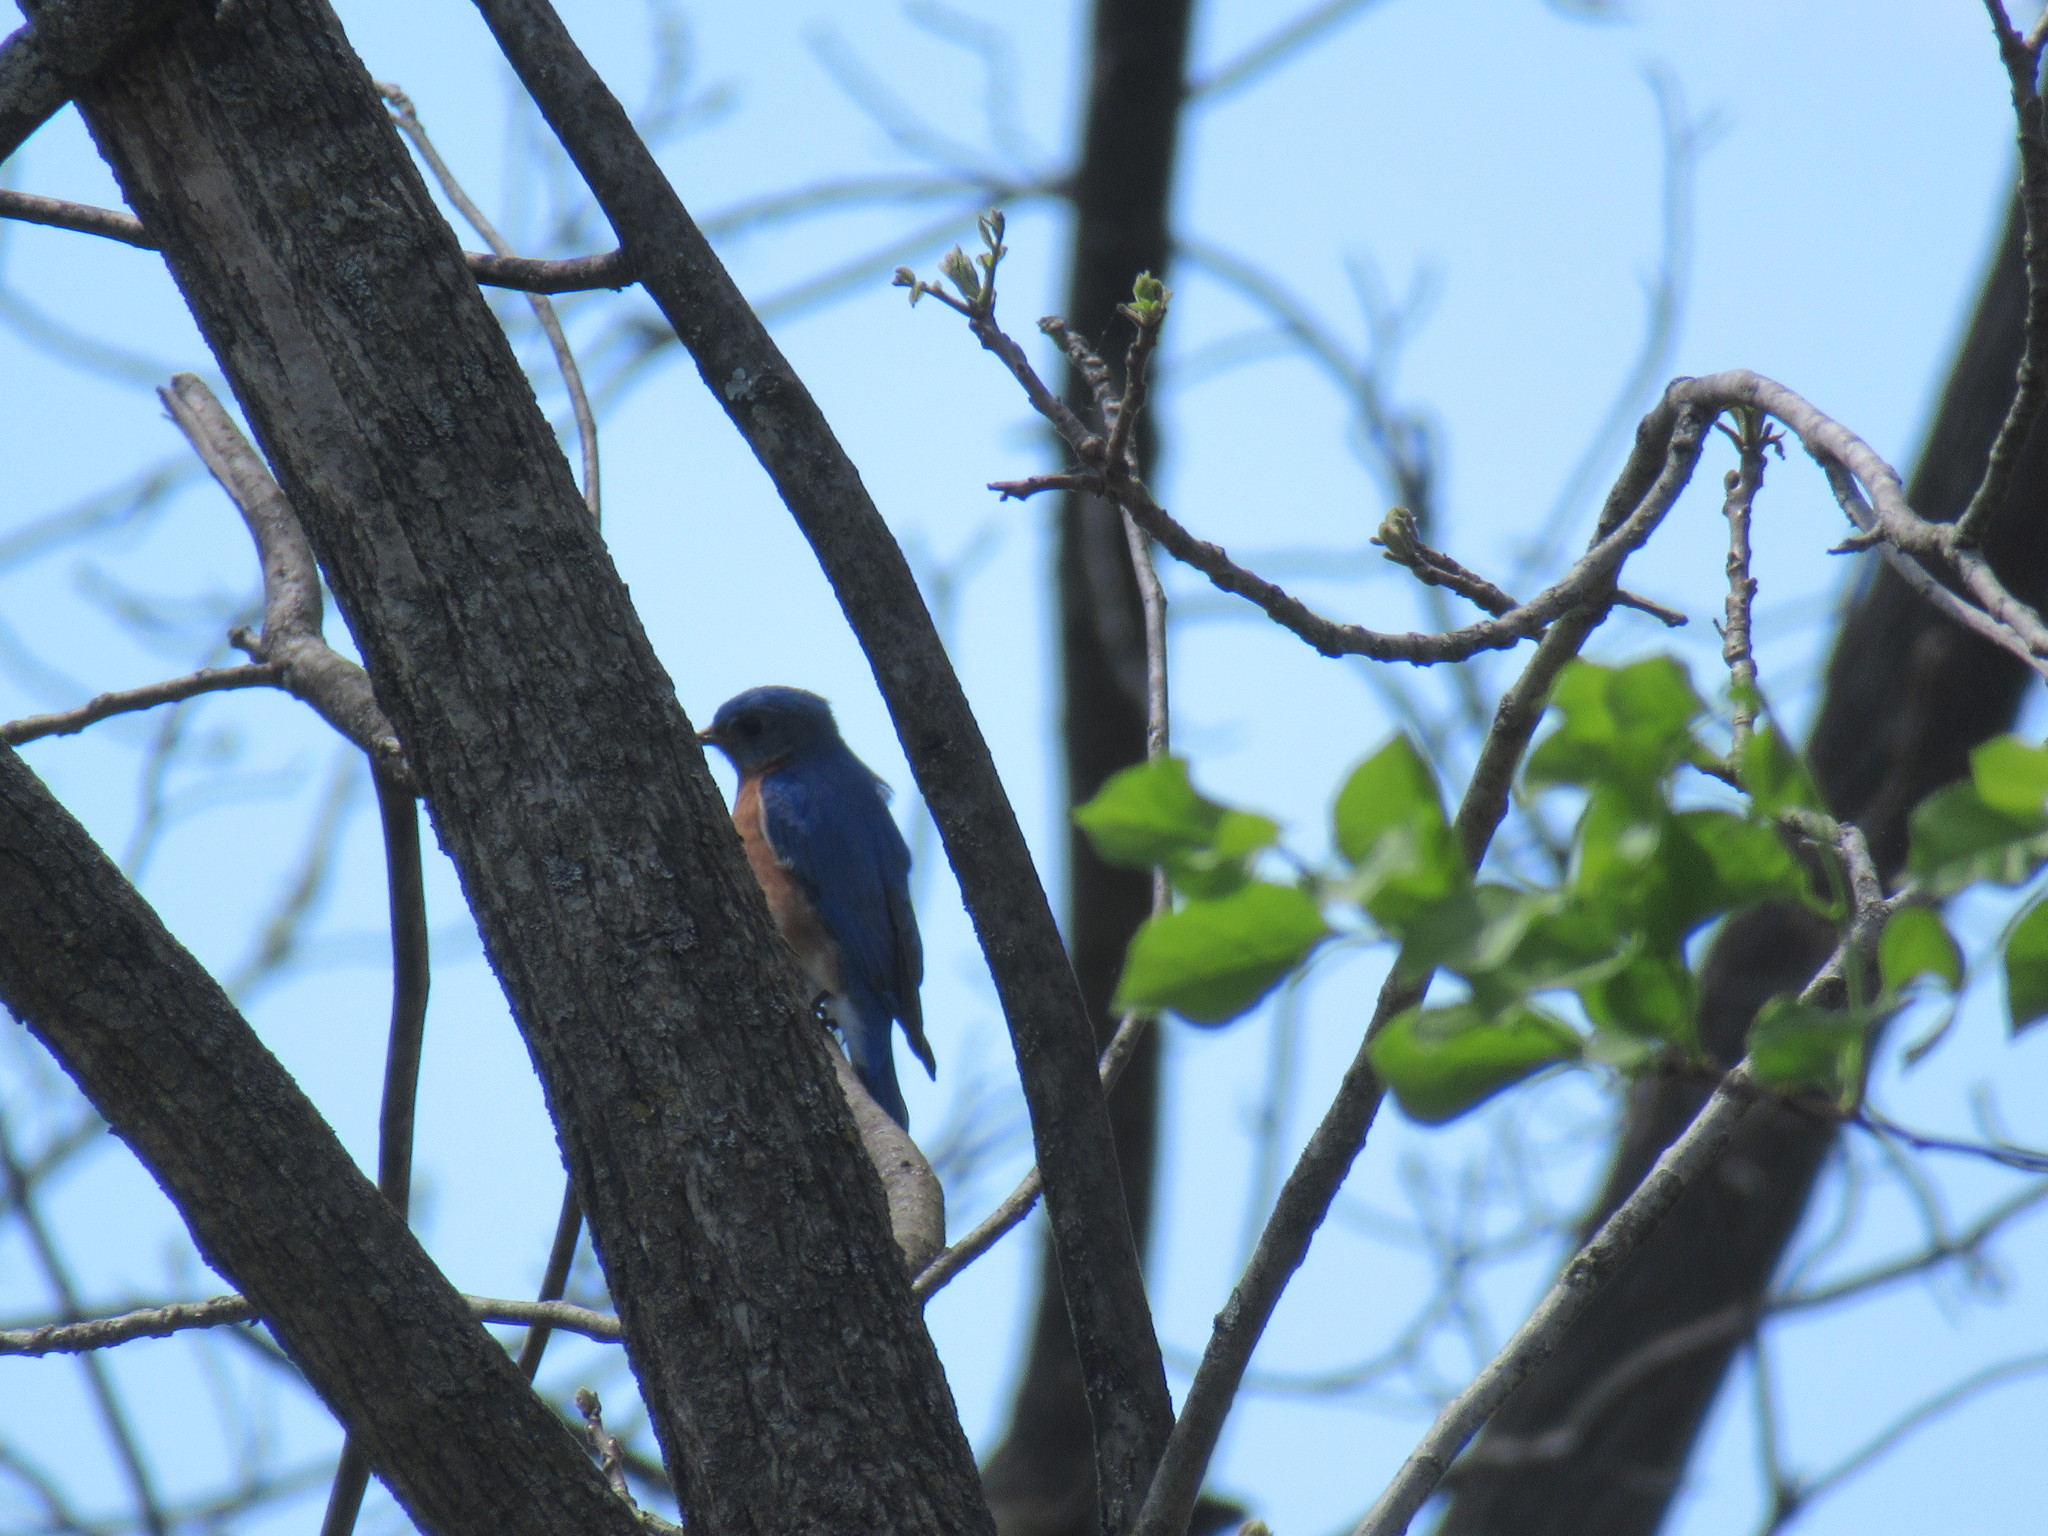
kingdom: Animalia
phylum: Chordata
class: Aves
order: Passeriformes
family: Turdidae
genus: Sialia
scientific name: Sialia sialis
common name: Eastern bluebird
